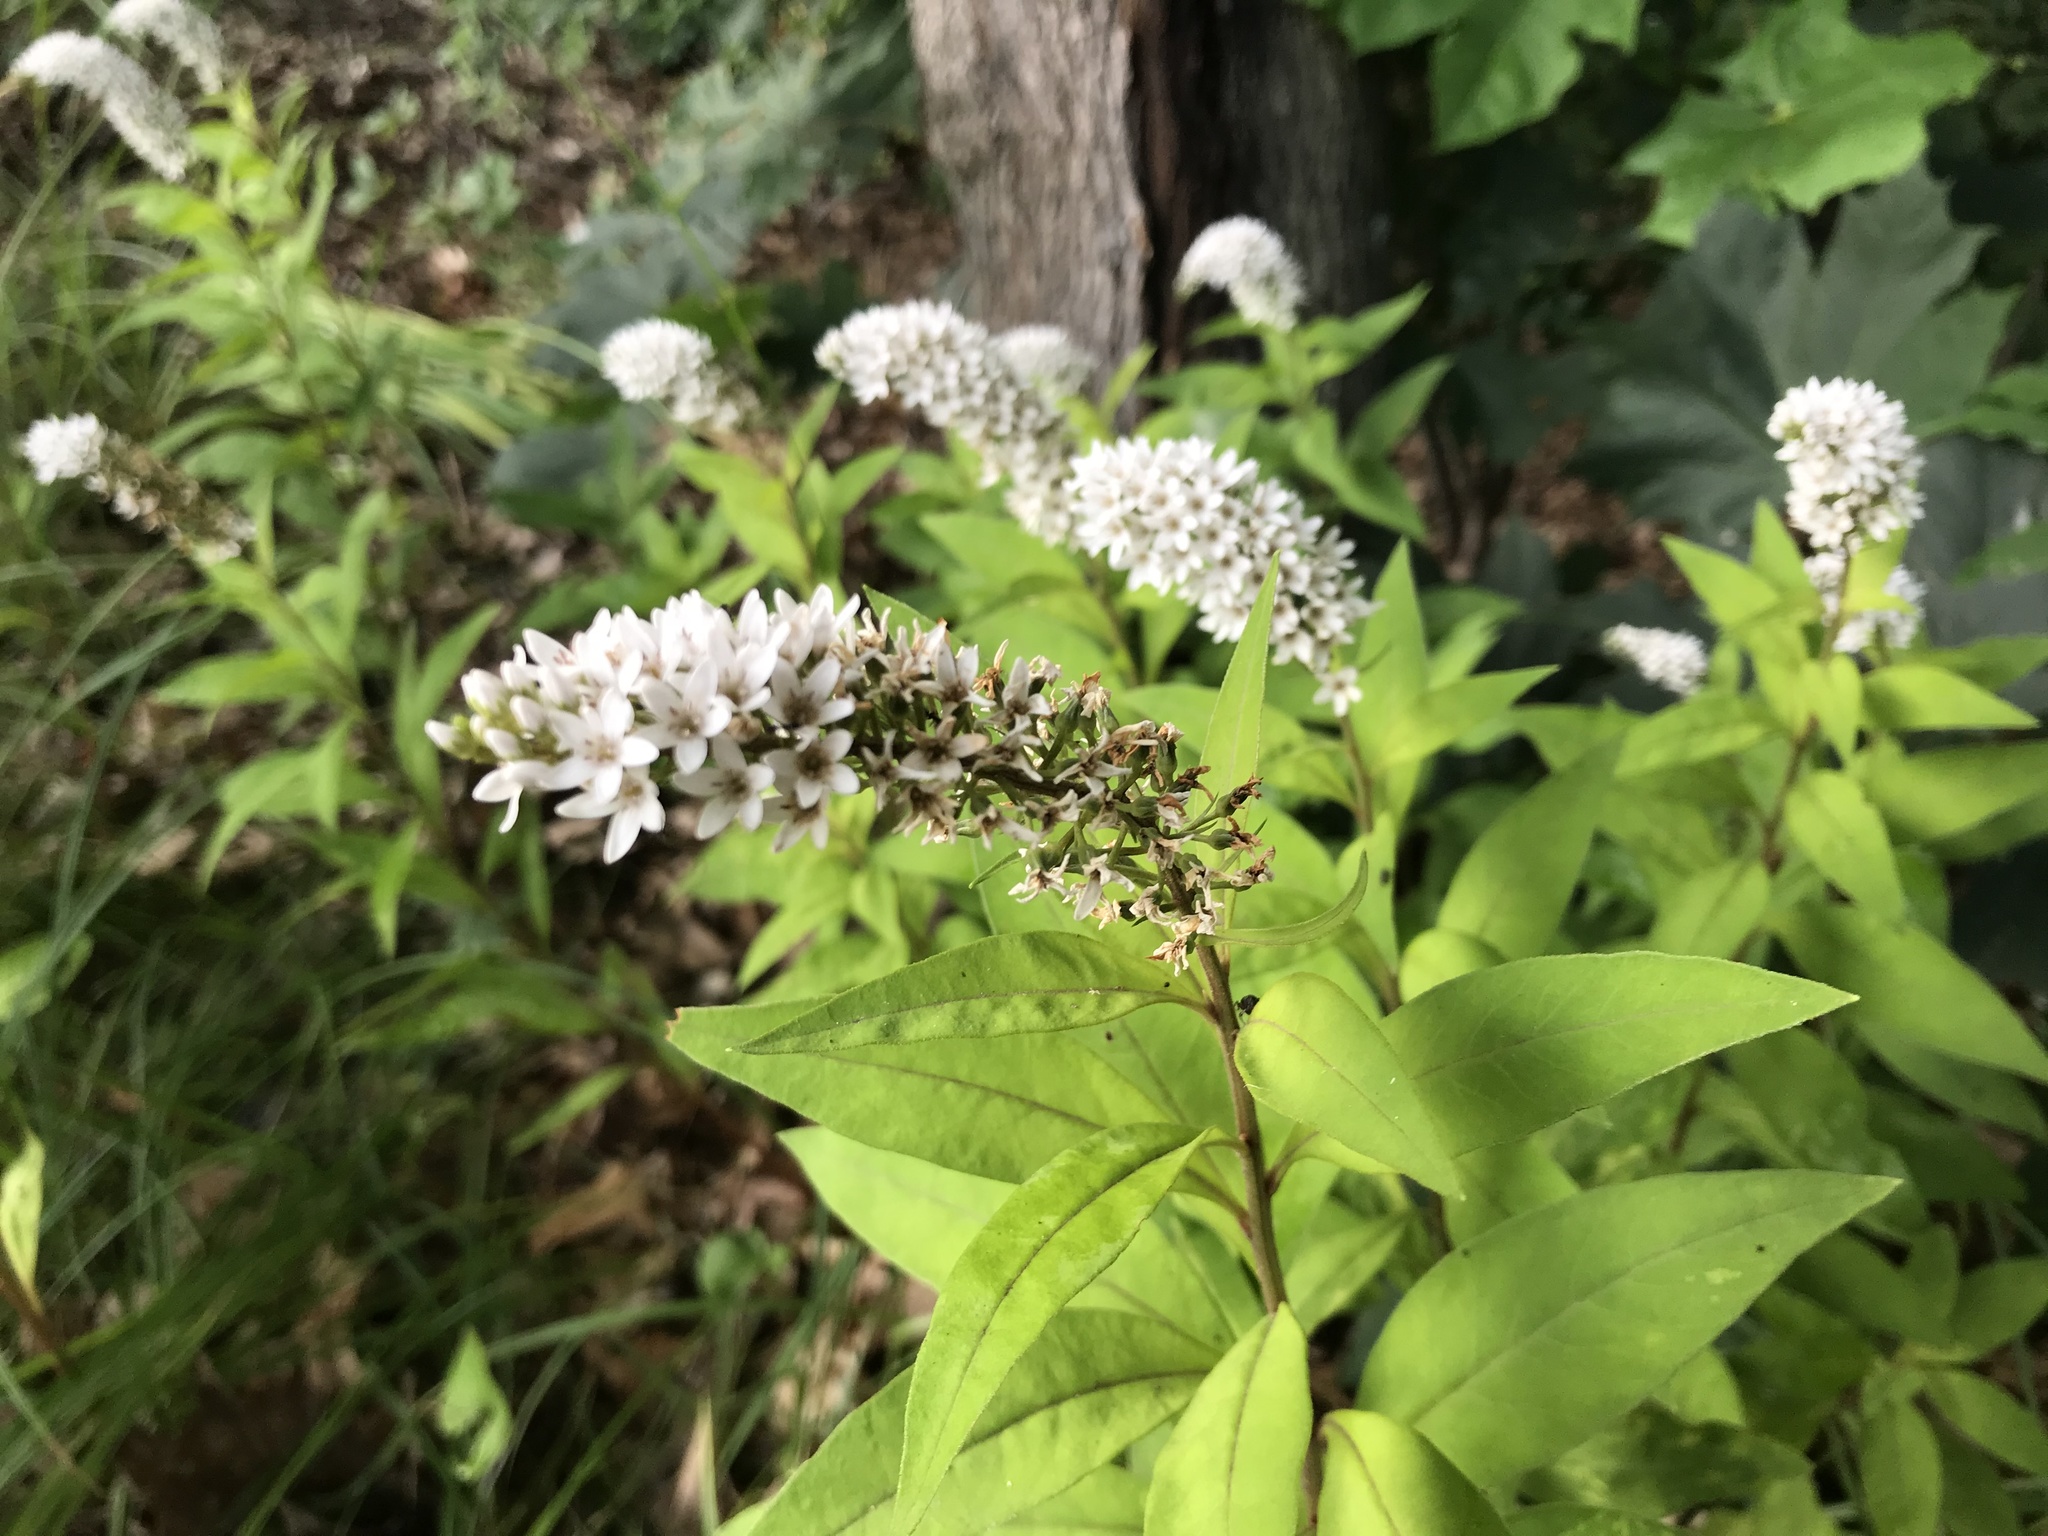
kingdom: Plantae
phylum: Tracheophyta
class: Magnoliopsida
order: Ericales
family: Primulaceae
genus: Lysimachia
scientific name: Lysimachia clethroides
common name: Gooseneck loosestrife
